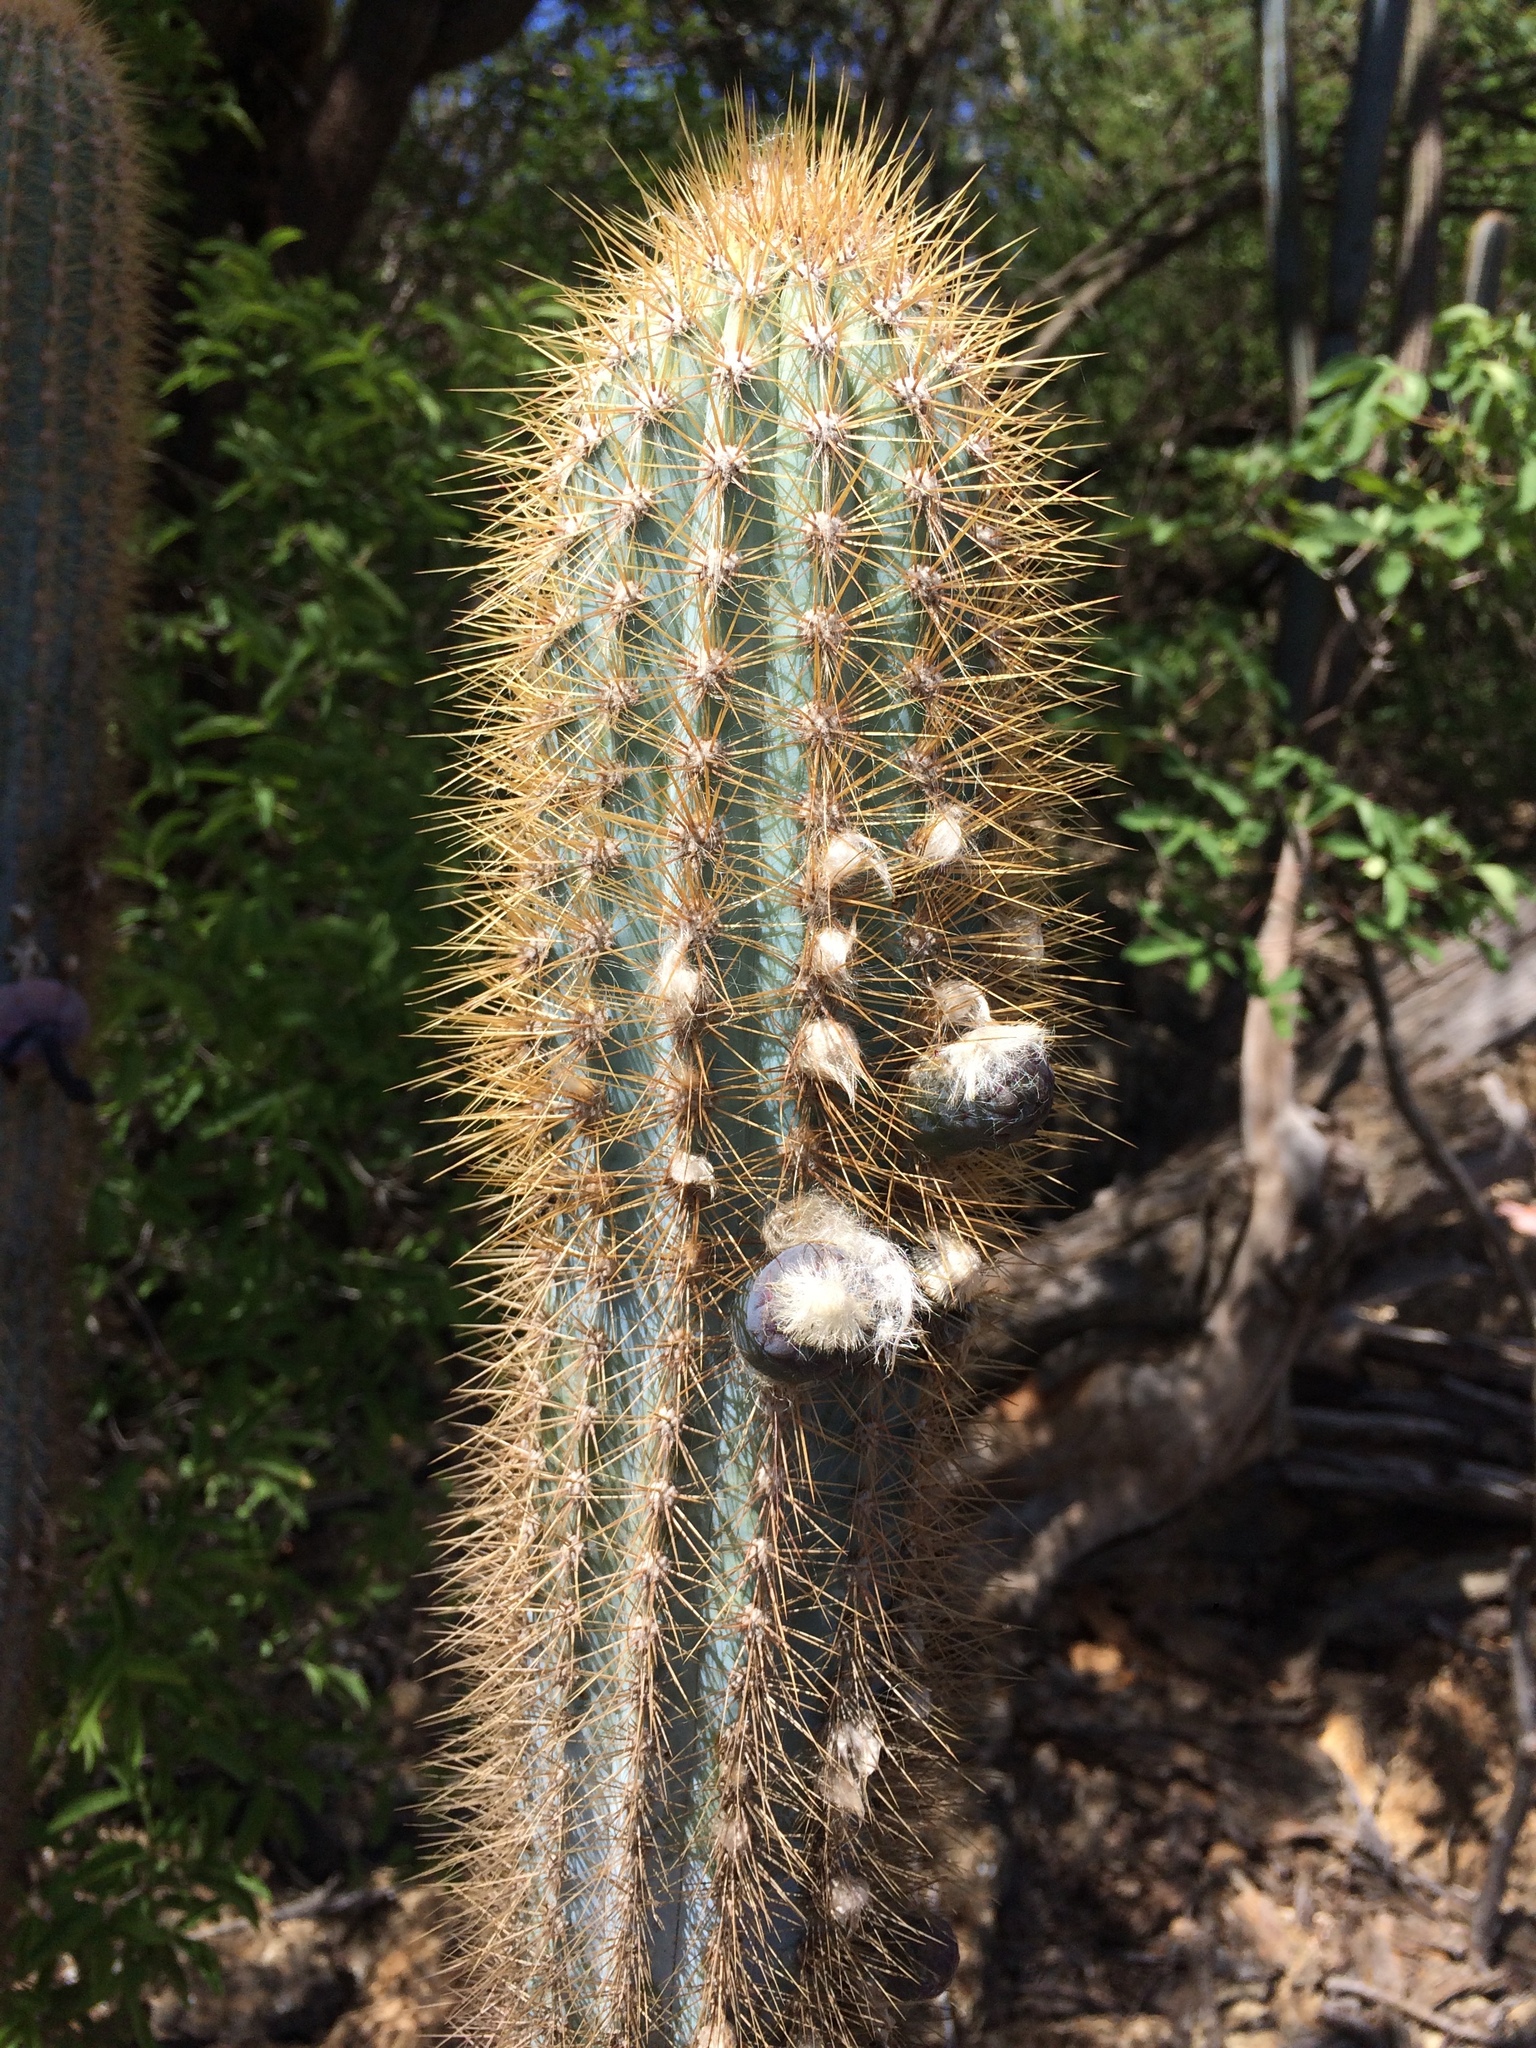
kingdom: Plantae
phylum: Tracheophyta
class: Magnoliopsida
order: Caryophyllales
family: Cactaceae
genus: Pilosocereus
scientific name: Pilosocereus pachycladus
